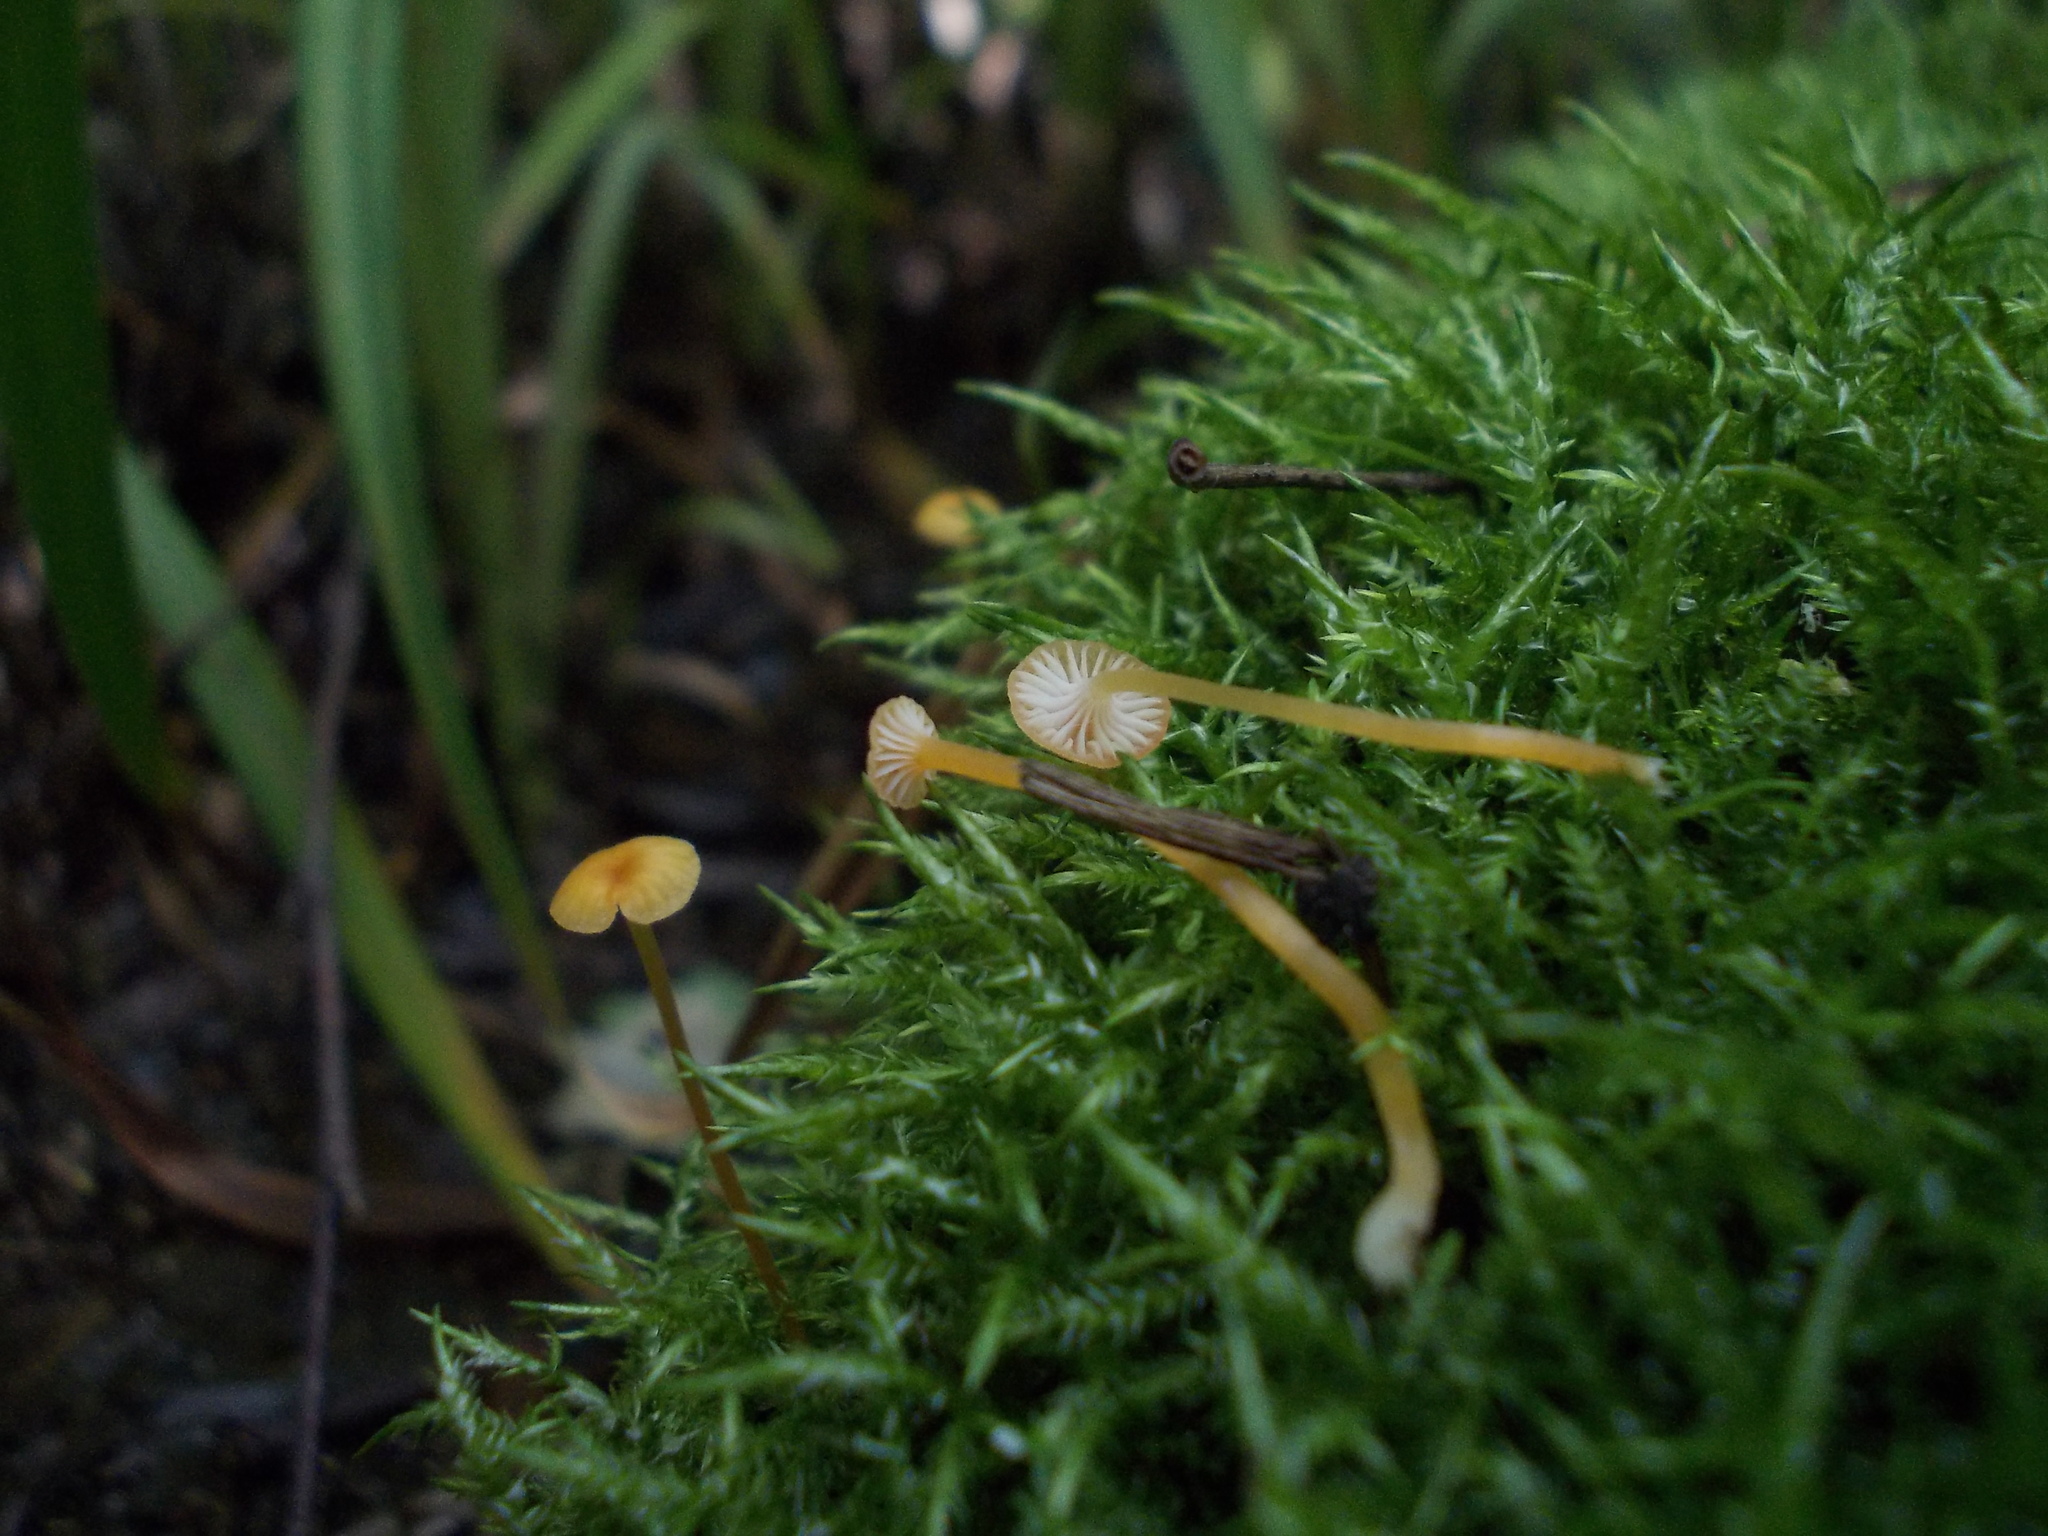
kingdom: Fungi
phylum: Basidiomycota
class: Agaricomycetes
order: Hymenochaetales
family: Rickenellaceae
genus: Rickenella
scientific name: Rickenella fibula
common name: Orange mosscap
